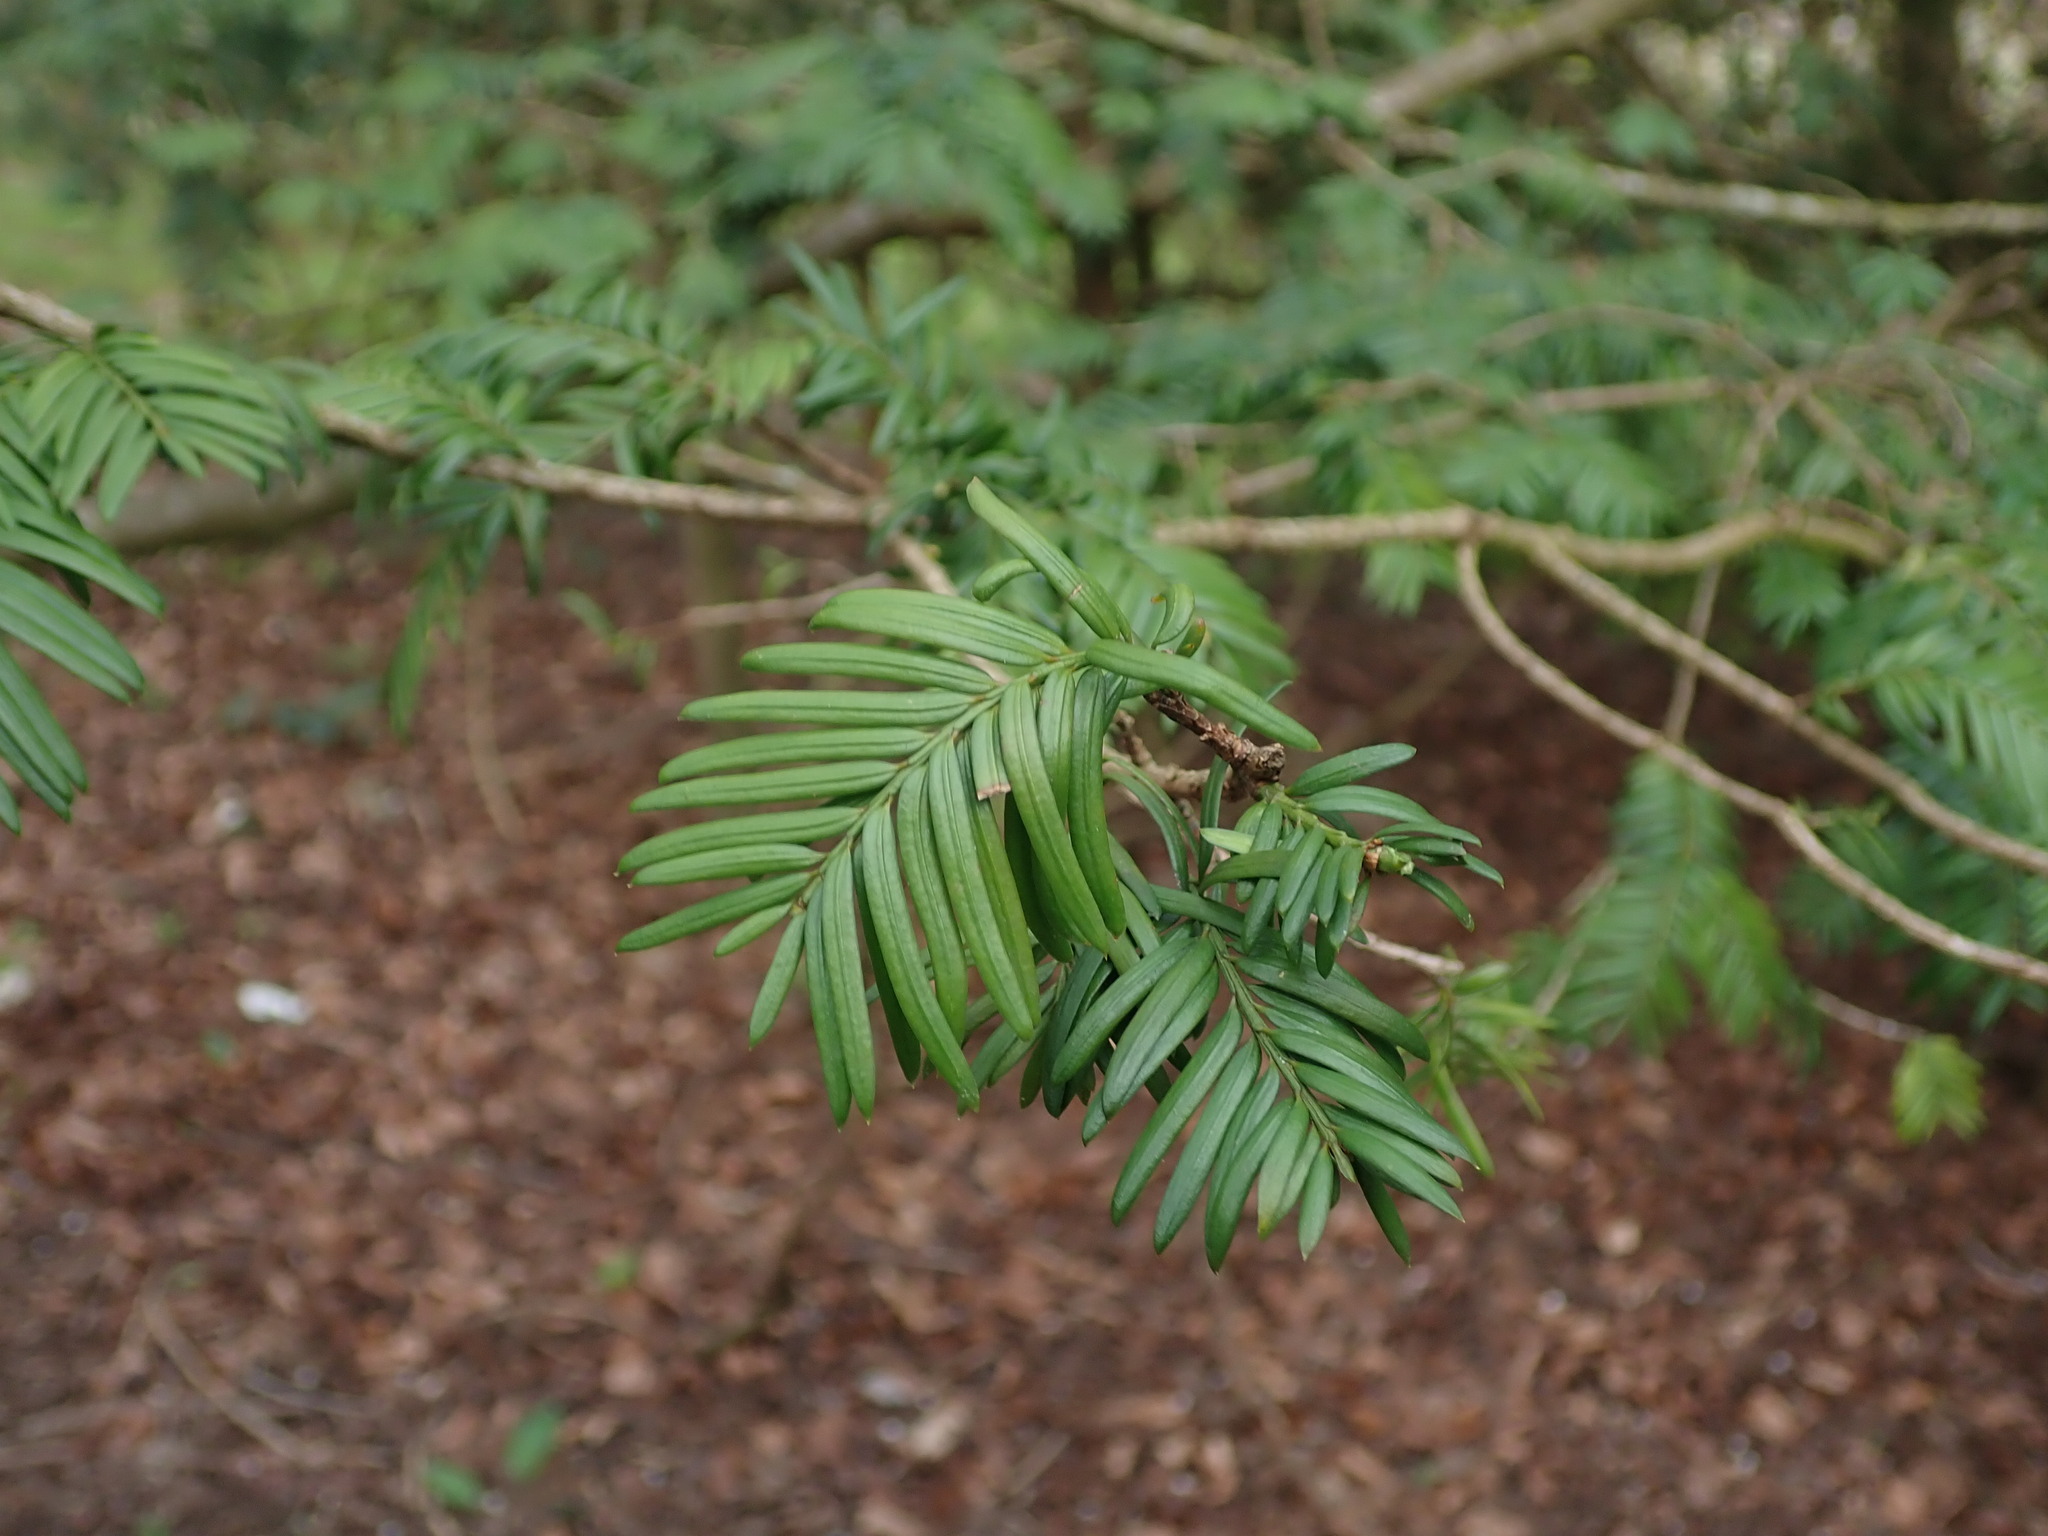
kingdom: Plantae
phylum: Tracheophyta
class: Pinopsida
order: Pinales
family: Taxaceae
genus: Taxus
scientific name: Taxus baccata
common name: Yew
